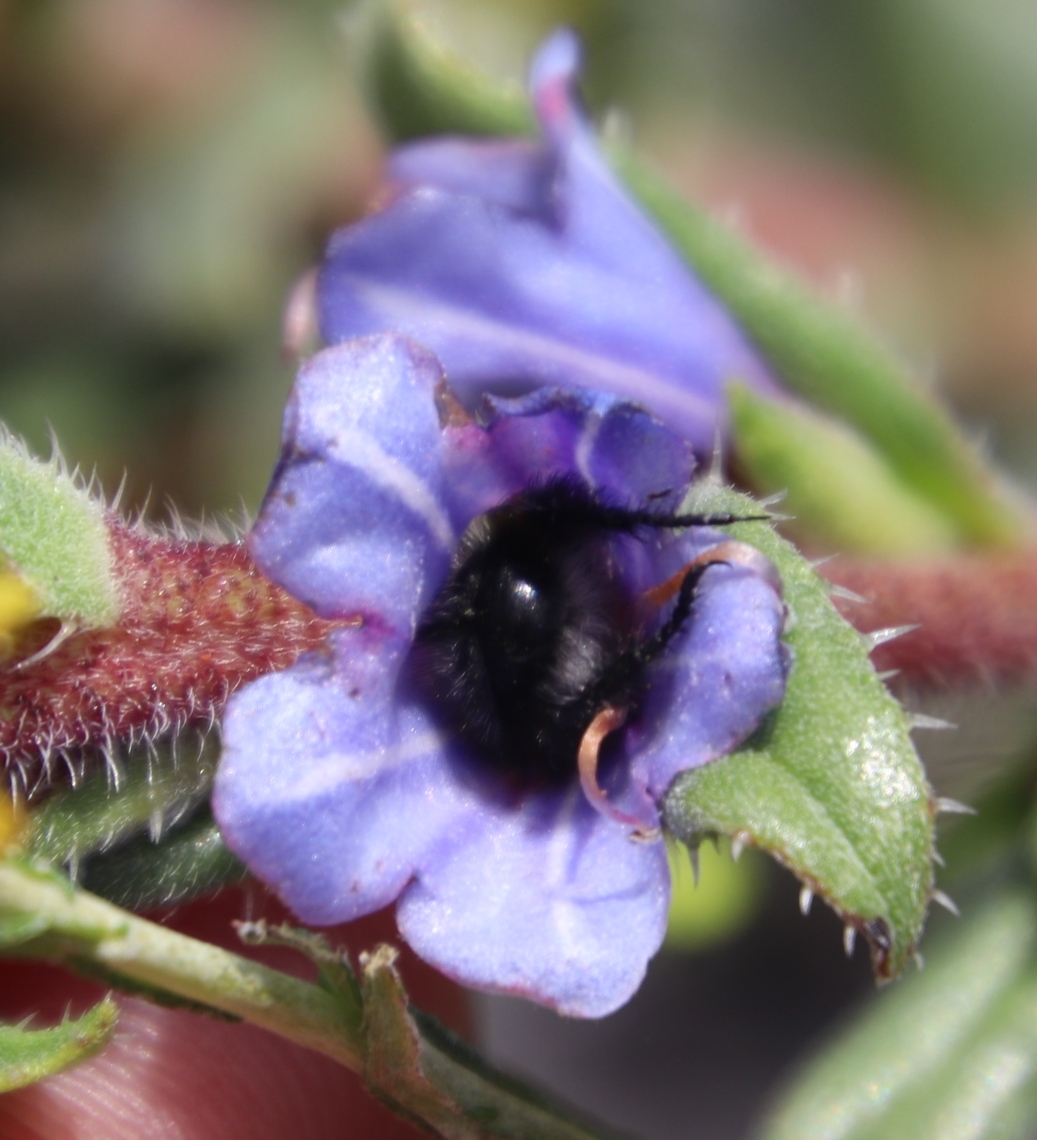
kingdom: Plantae
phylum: Tracheophyta
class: Magnoliopsida
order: Boraginales
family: Boraginaceae
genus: Lobostemon
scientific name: Lobostemon argenteus
